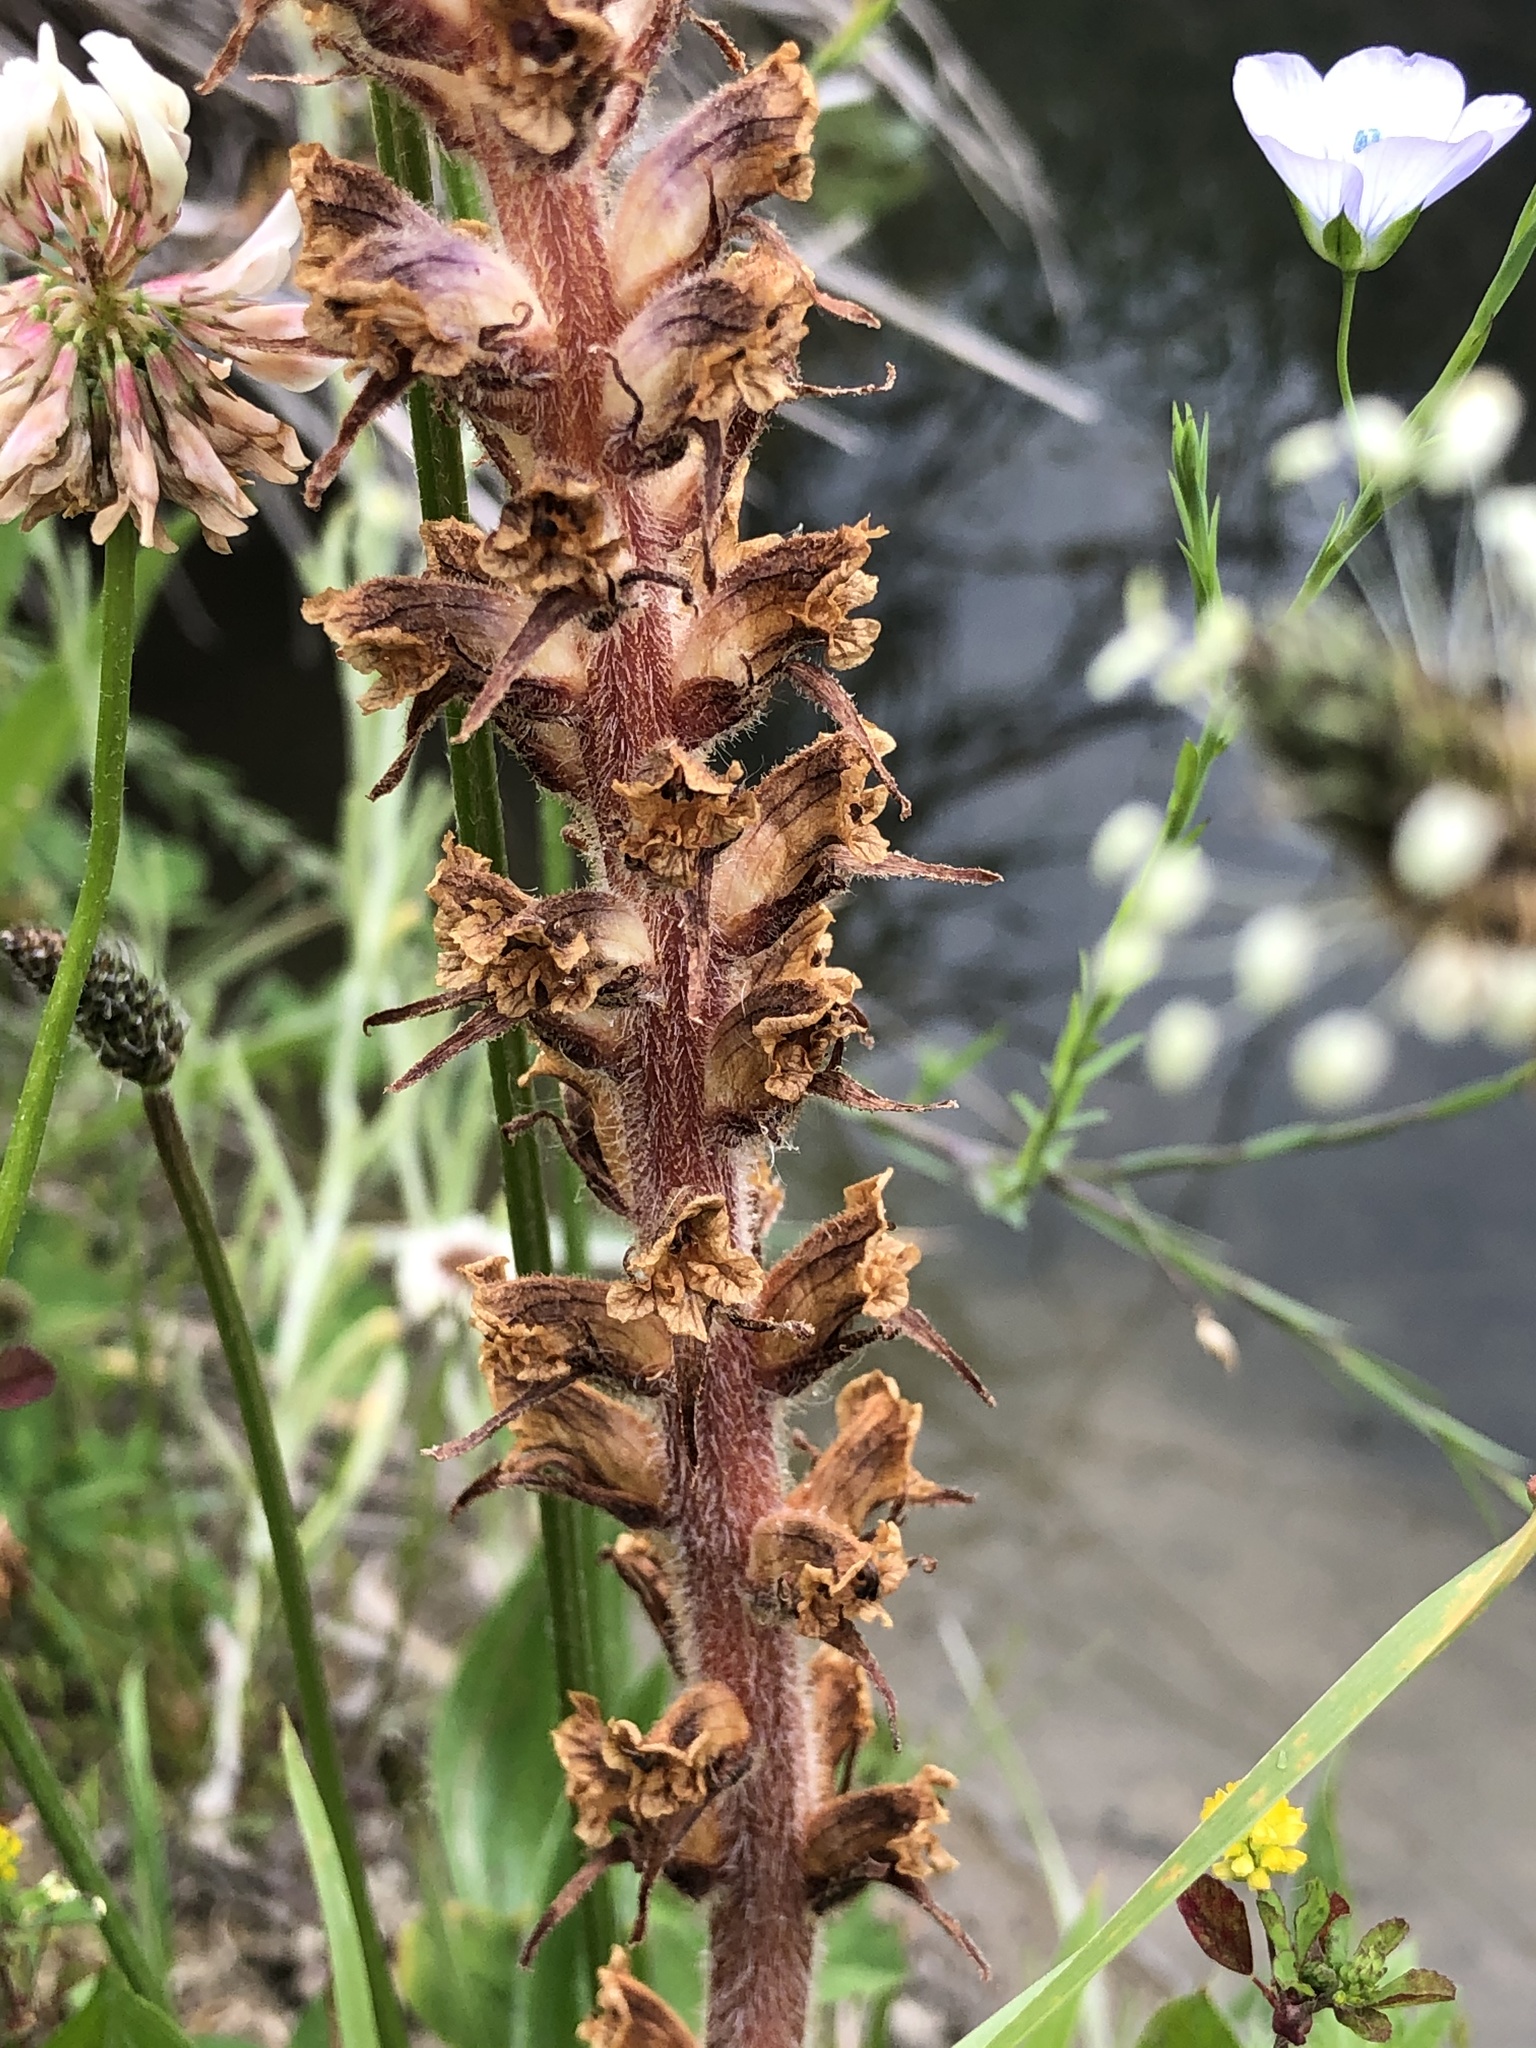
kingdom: Plantae
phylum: Tracheophyta
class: Magnoliopsida
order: Lamiales
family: Orobanchaceae
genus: Orobanche
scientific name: Orobanche minor
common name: Common broomrape
